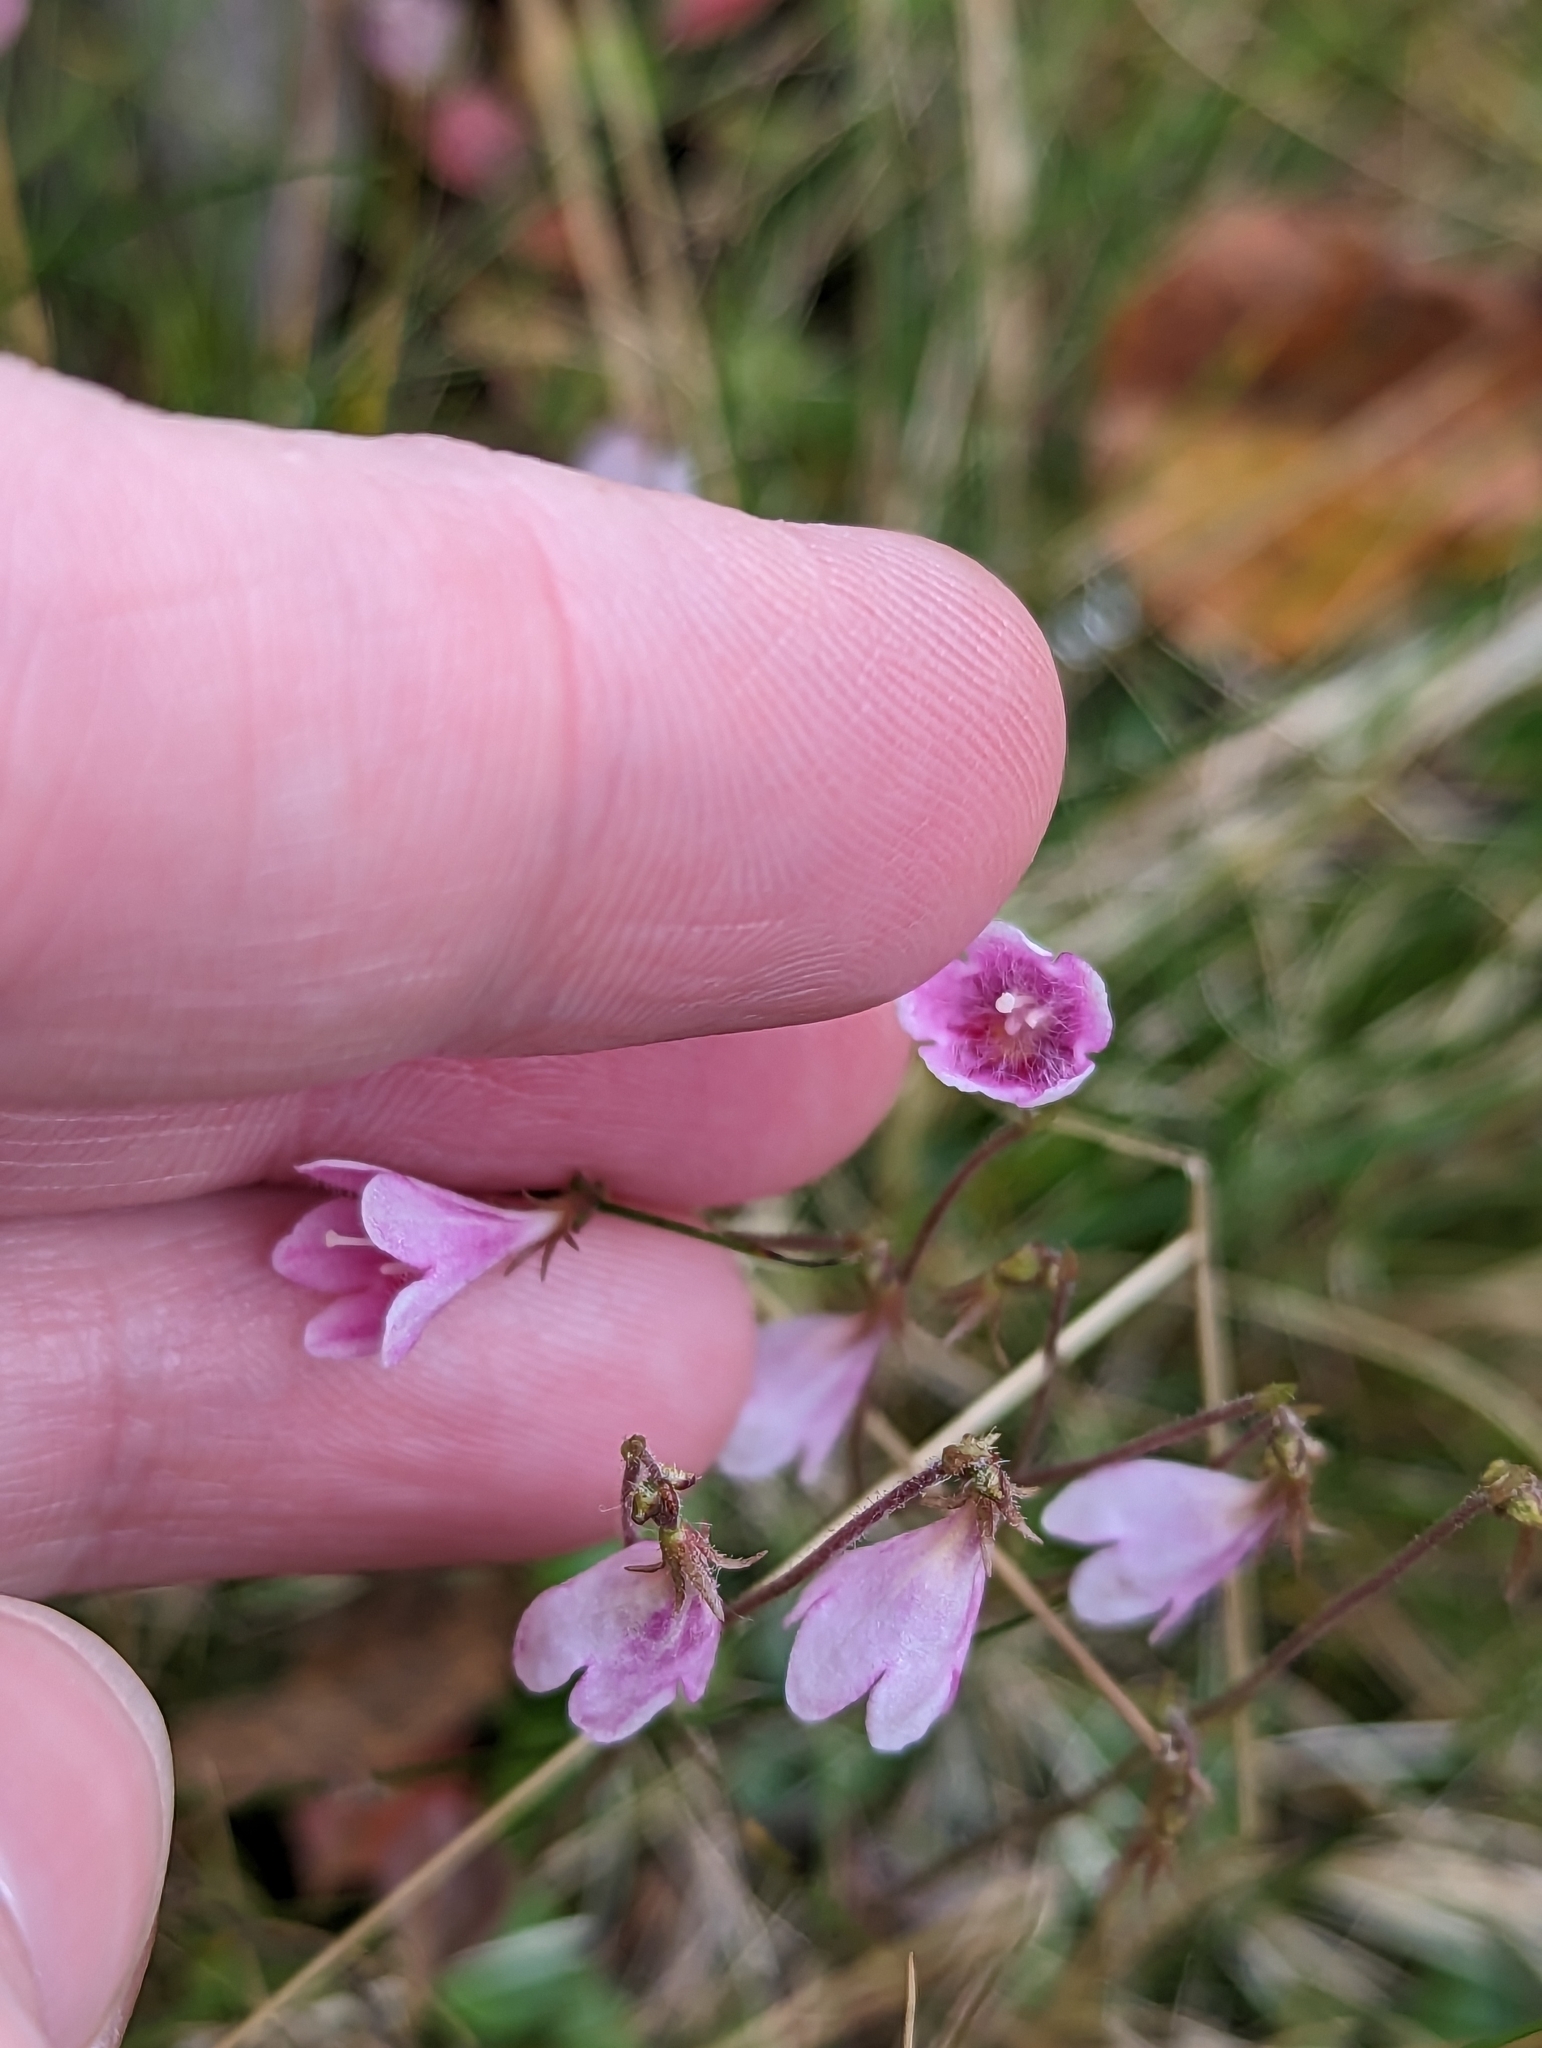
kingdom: Plantae
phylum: Tracheophyta
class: Magnoliopsida
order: Dipsacales
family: Caprifoliaceae
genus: Linnaea
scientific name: Linnaea borealis
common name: Twinflower
